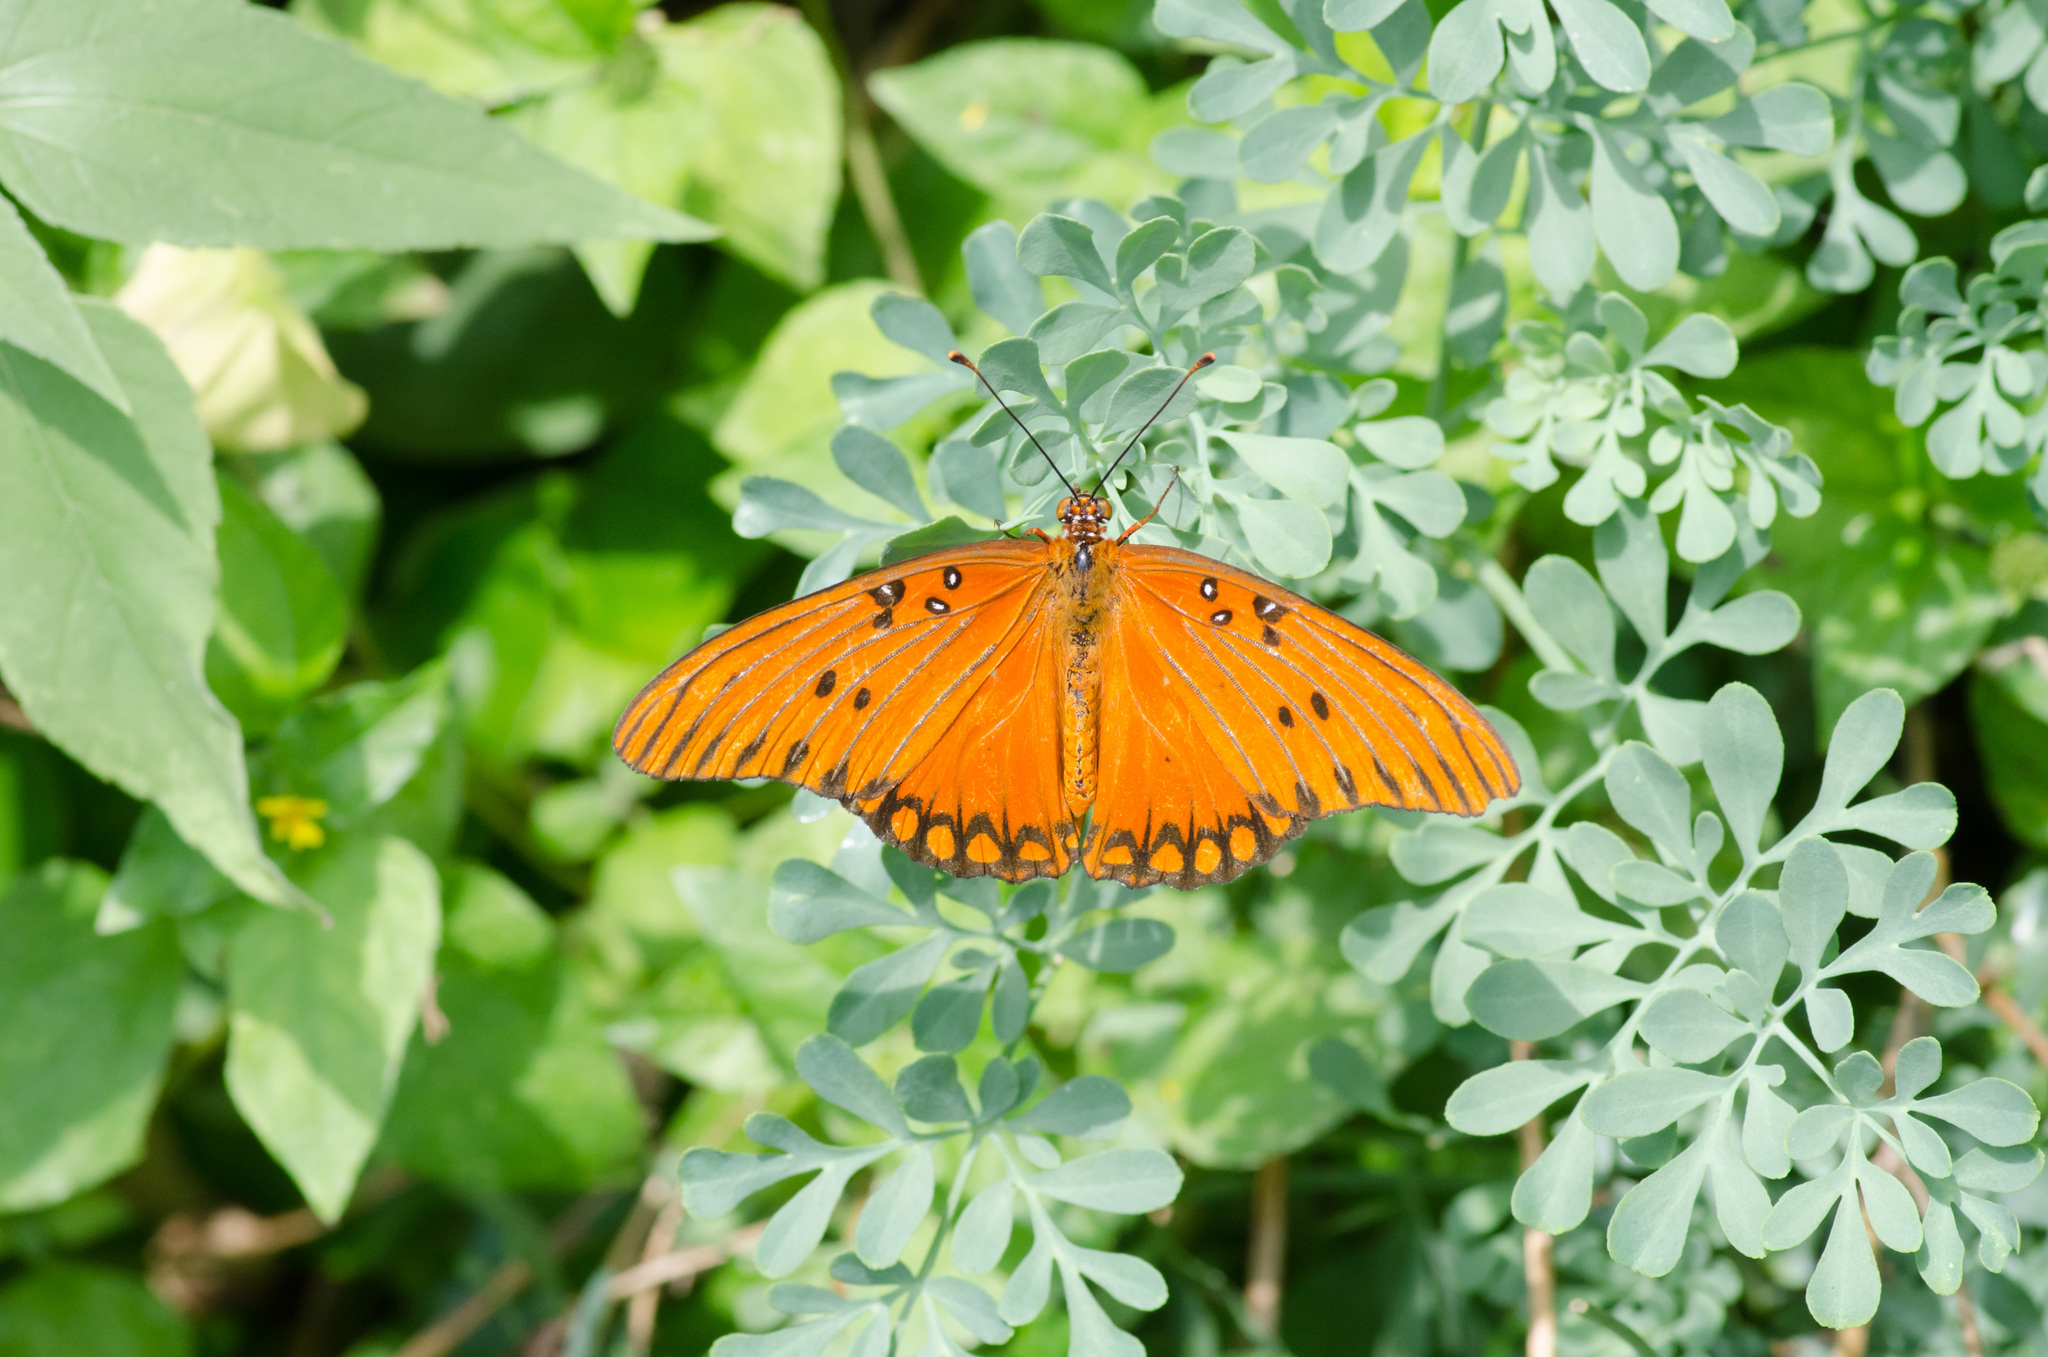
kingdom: Animalia
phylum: Arthropoda
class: Insecta
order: Lepidoptera
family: Nymphalidae
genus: Dione
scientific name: Dione vanillae
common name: Gulf fritillary
